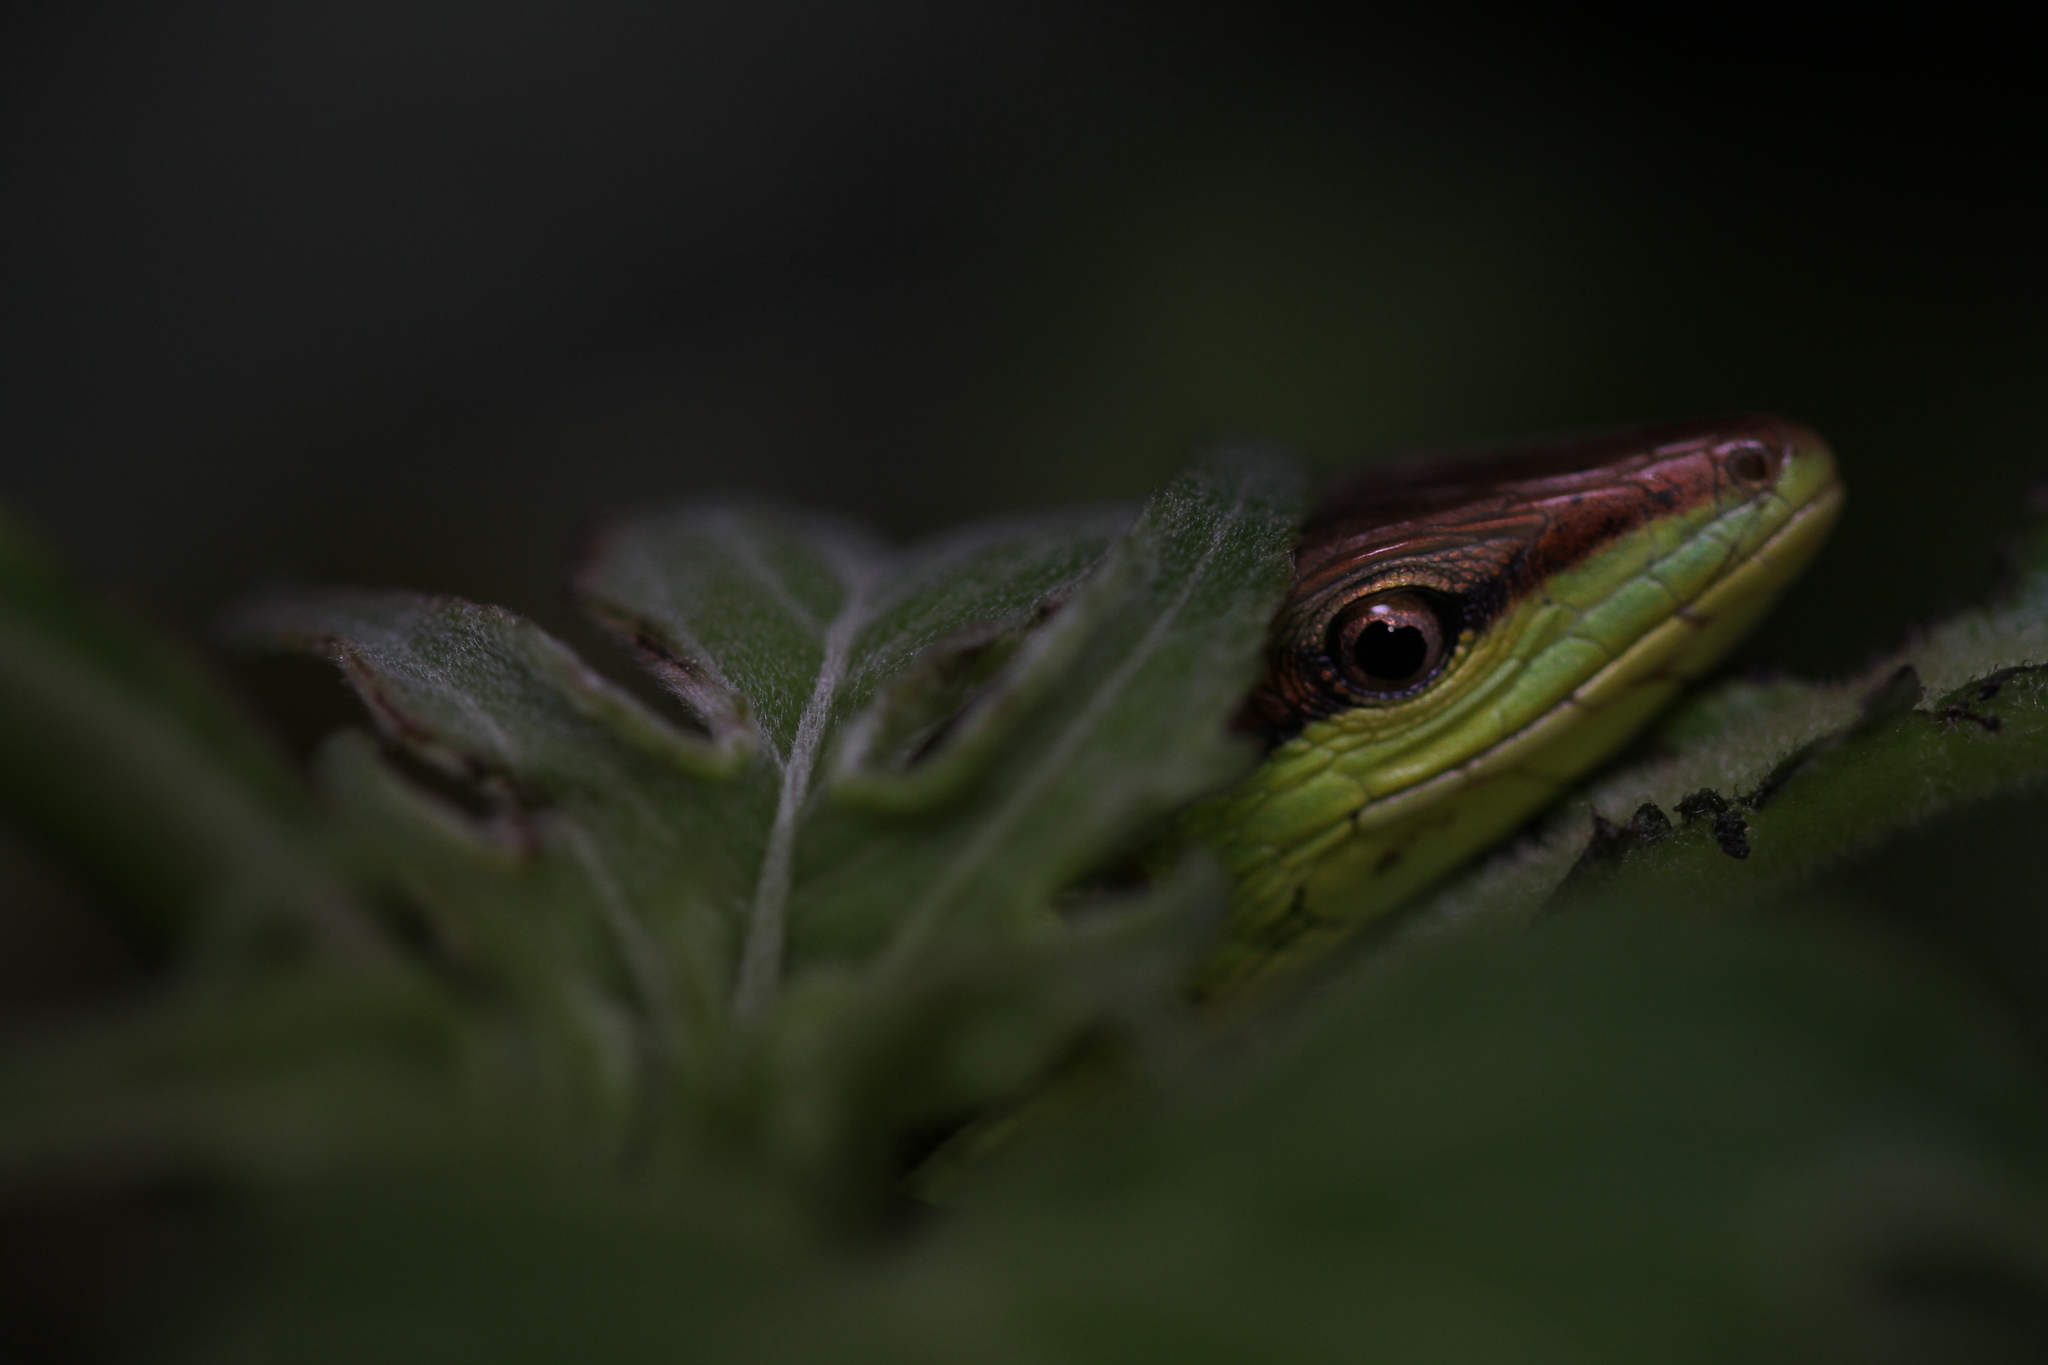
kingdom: Animalia
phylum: Chordata
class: Squamata
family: Lacertidae
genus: Takydromus
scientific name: Takydromus sexlineatus
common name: Asian grass lizard
